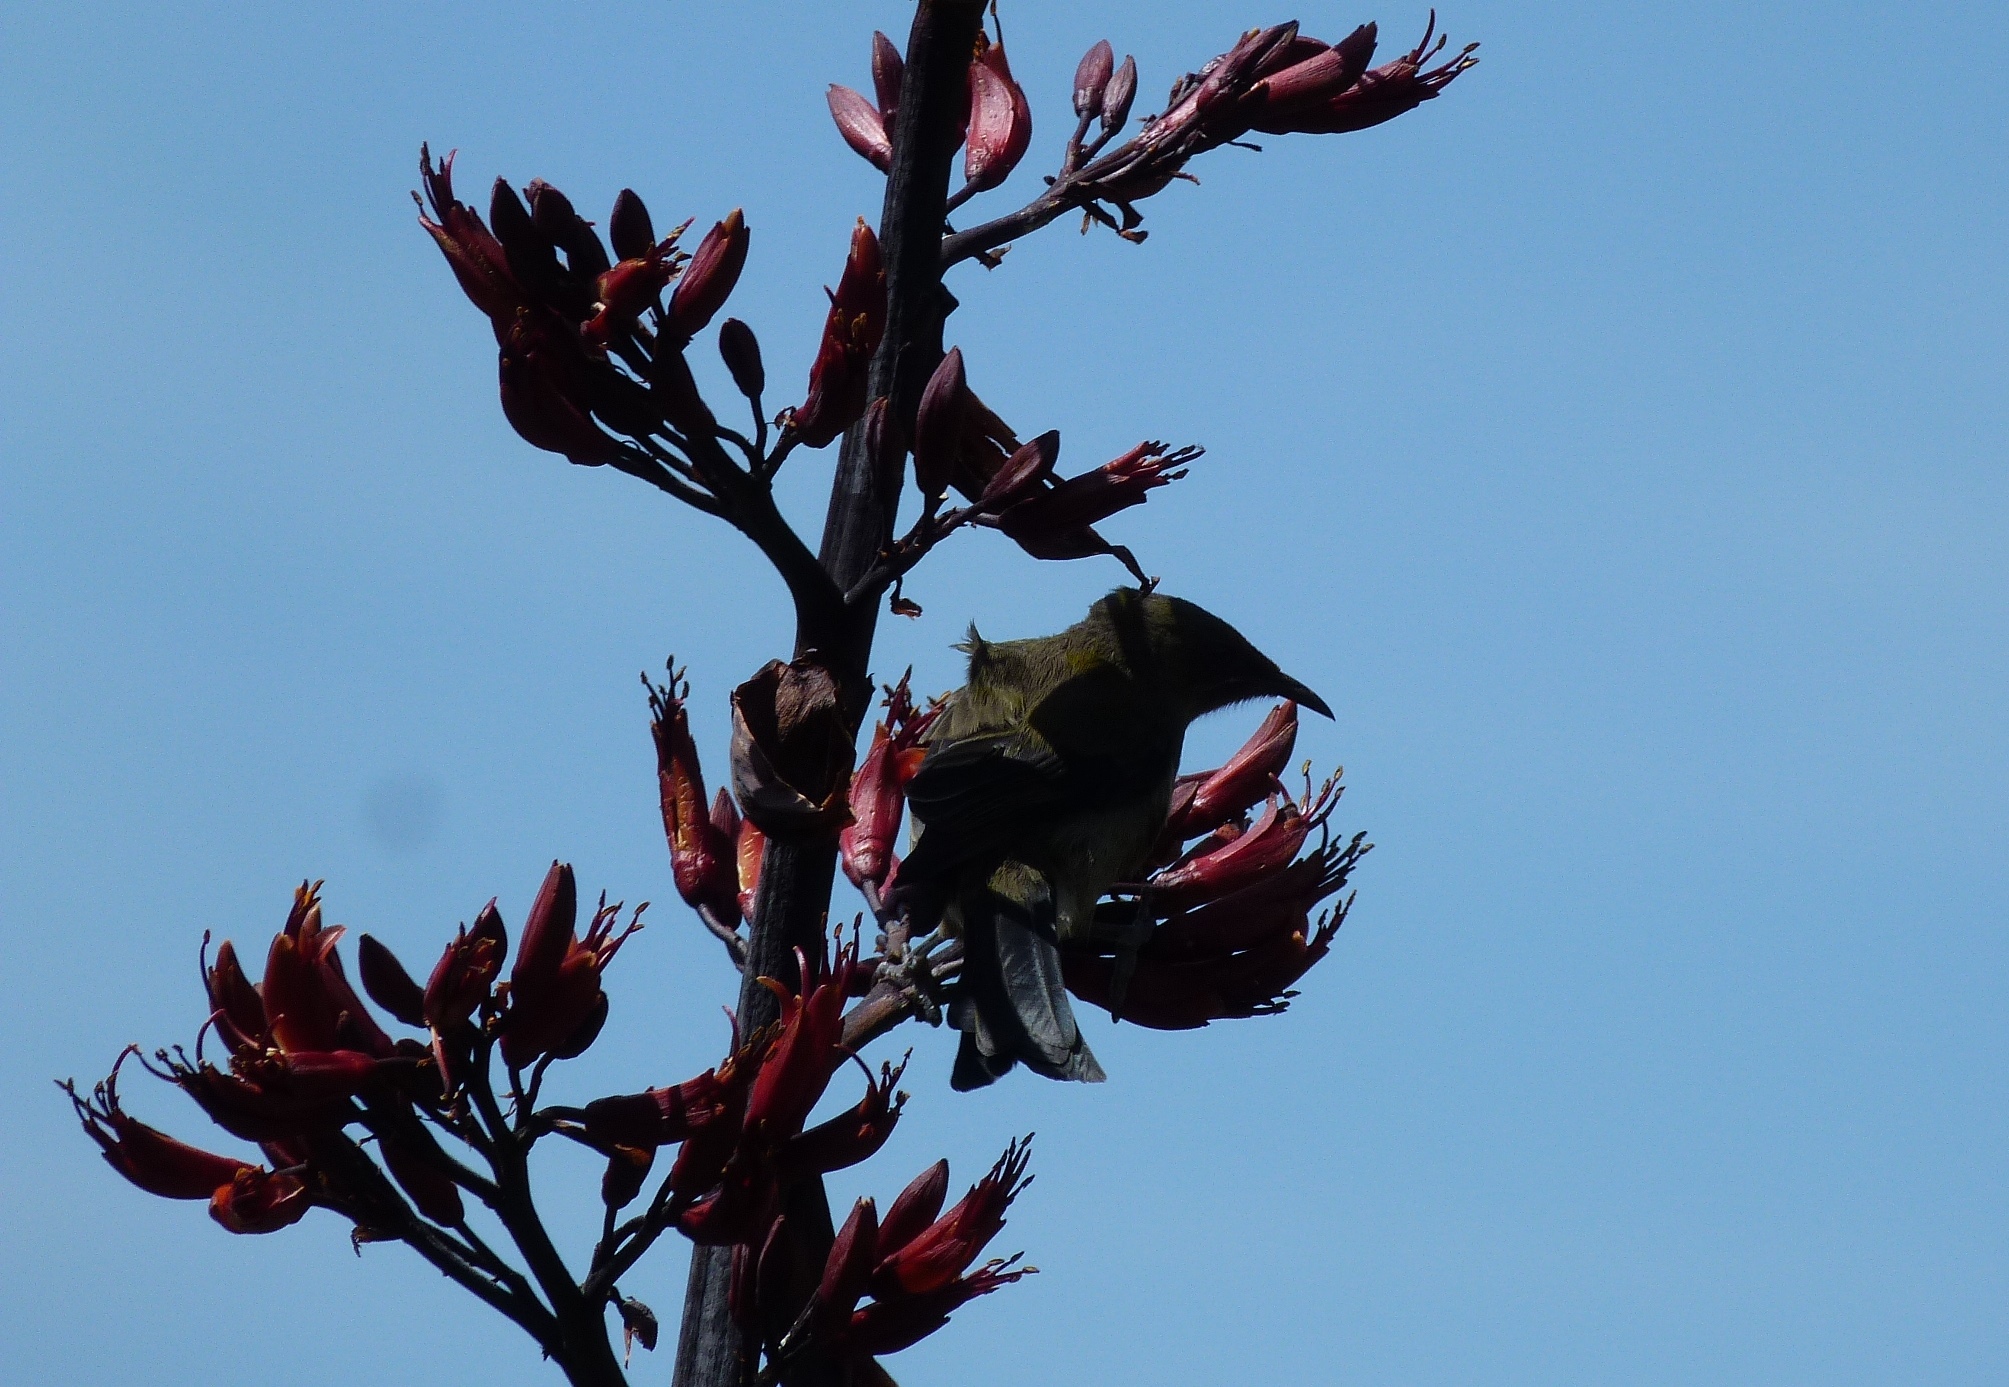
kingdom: Animalia
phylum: Chordata
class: Aves
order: Passeriformes
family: Meliphagidae
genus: Anthornis
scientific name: Anthornis melanura
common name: New zealand bellbird
